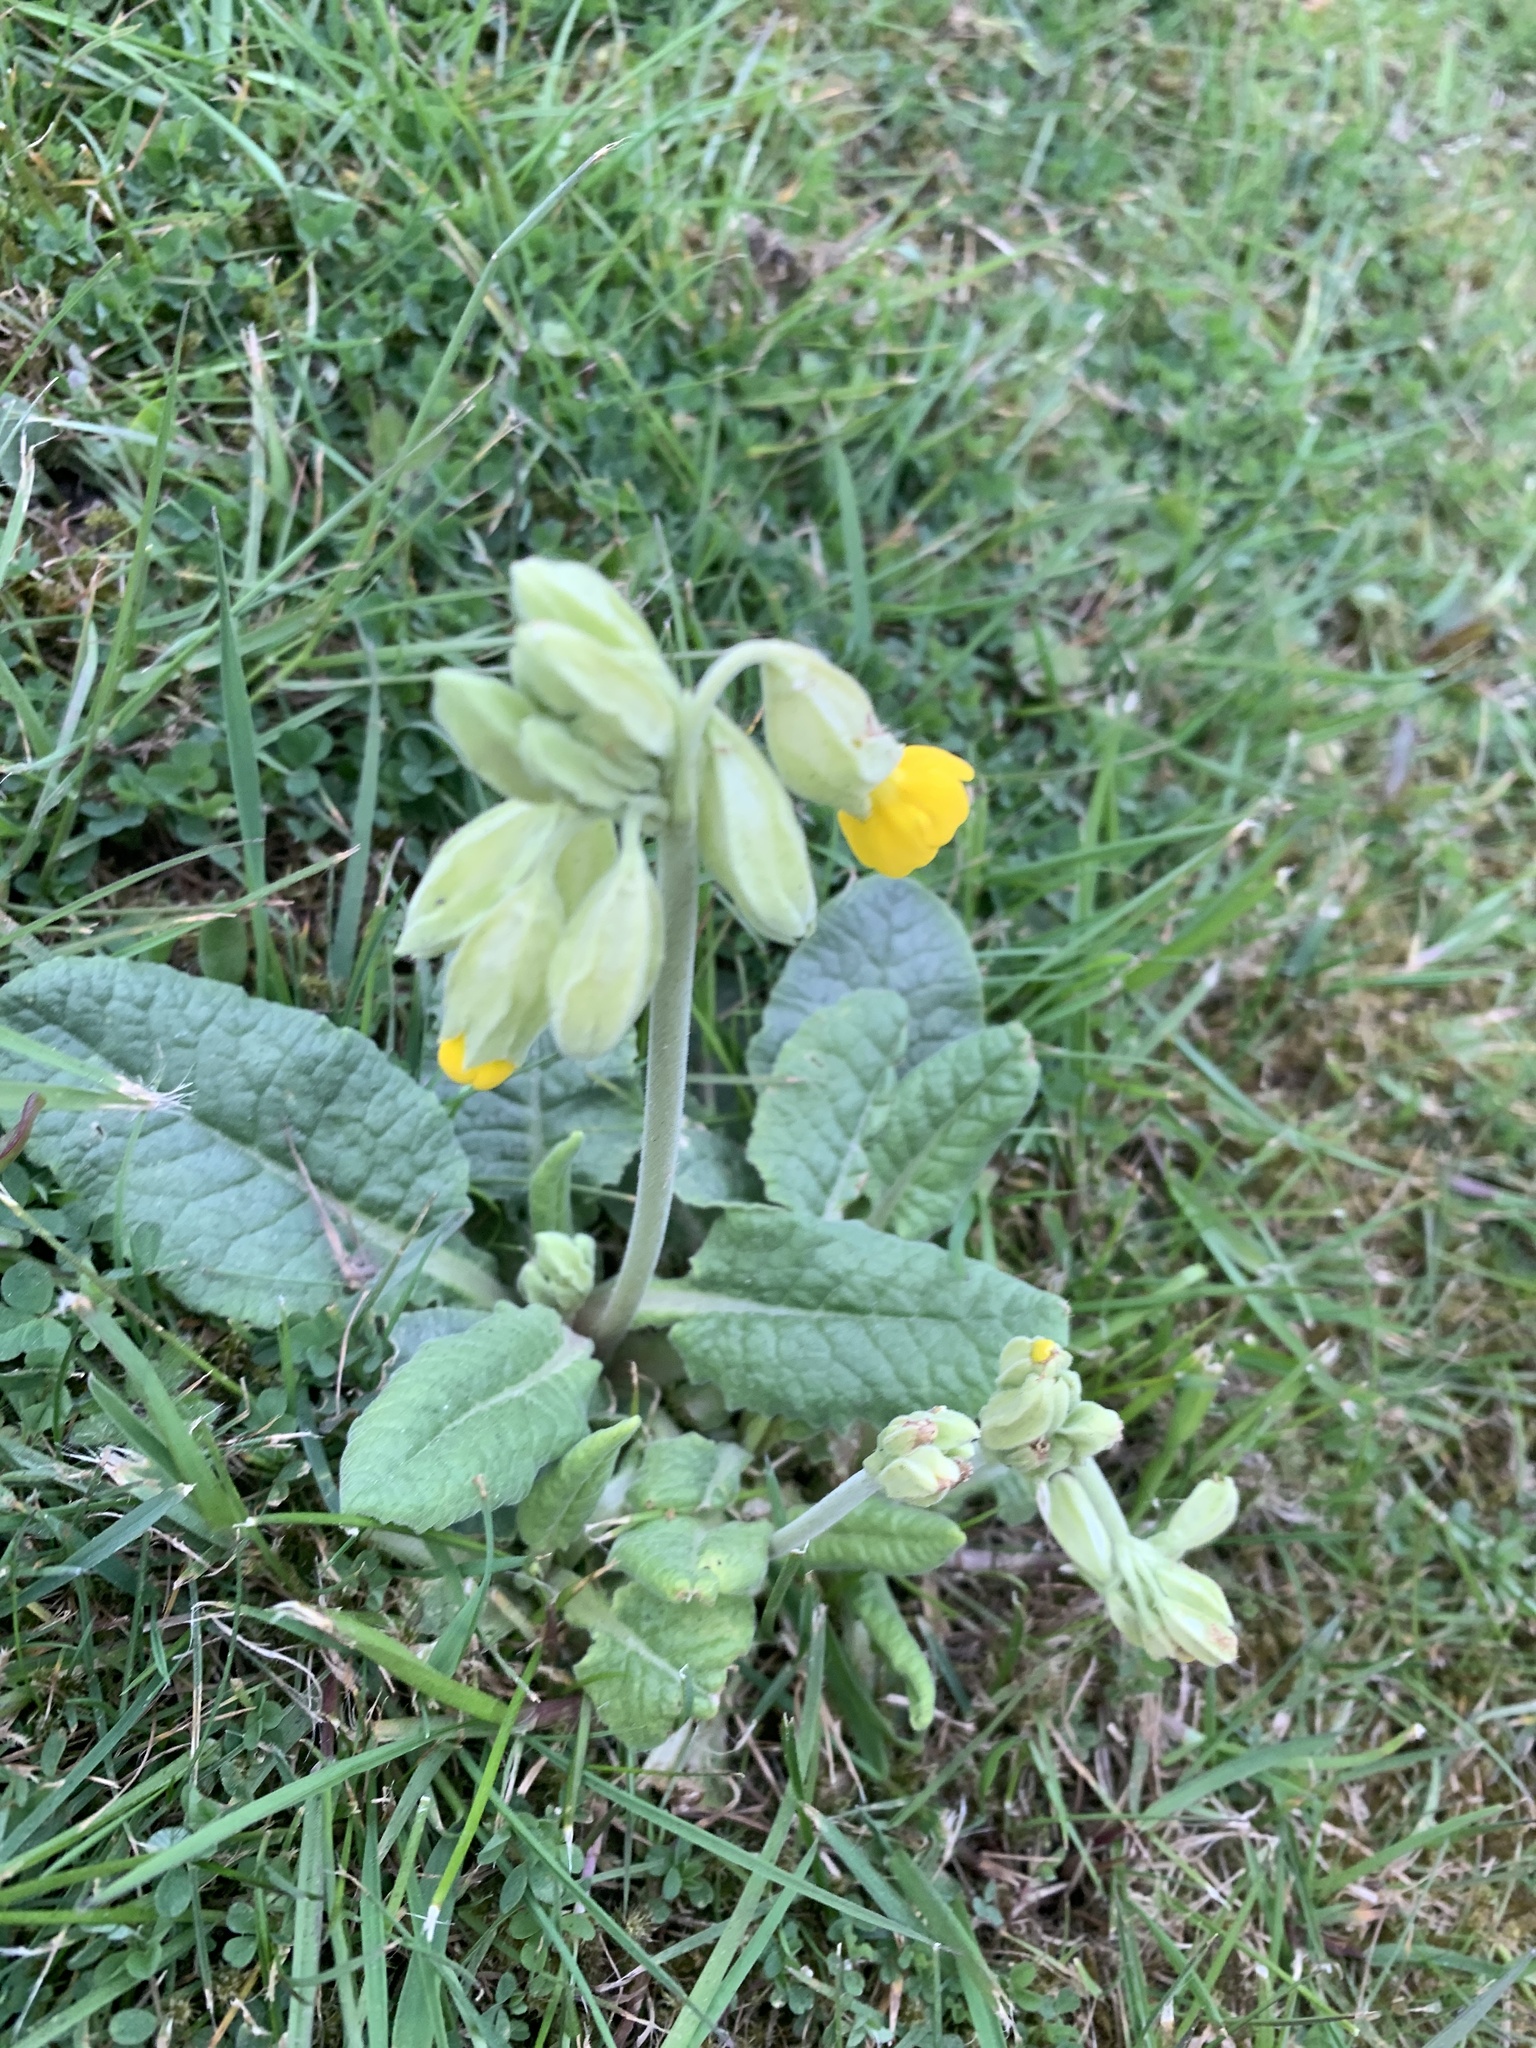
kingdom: Plantae
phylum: Tracheophyta
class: Magnoliopsida
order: Ericales
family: Primulaceae
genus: Primula
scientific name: Primula veris
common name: Cowslip
